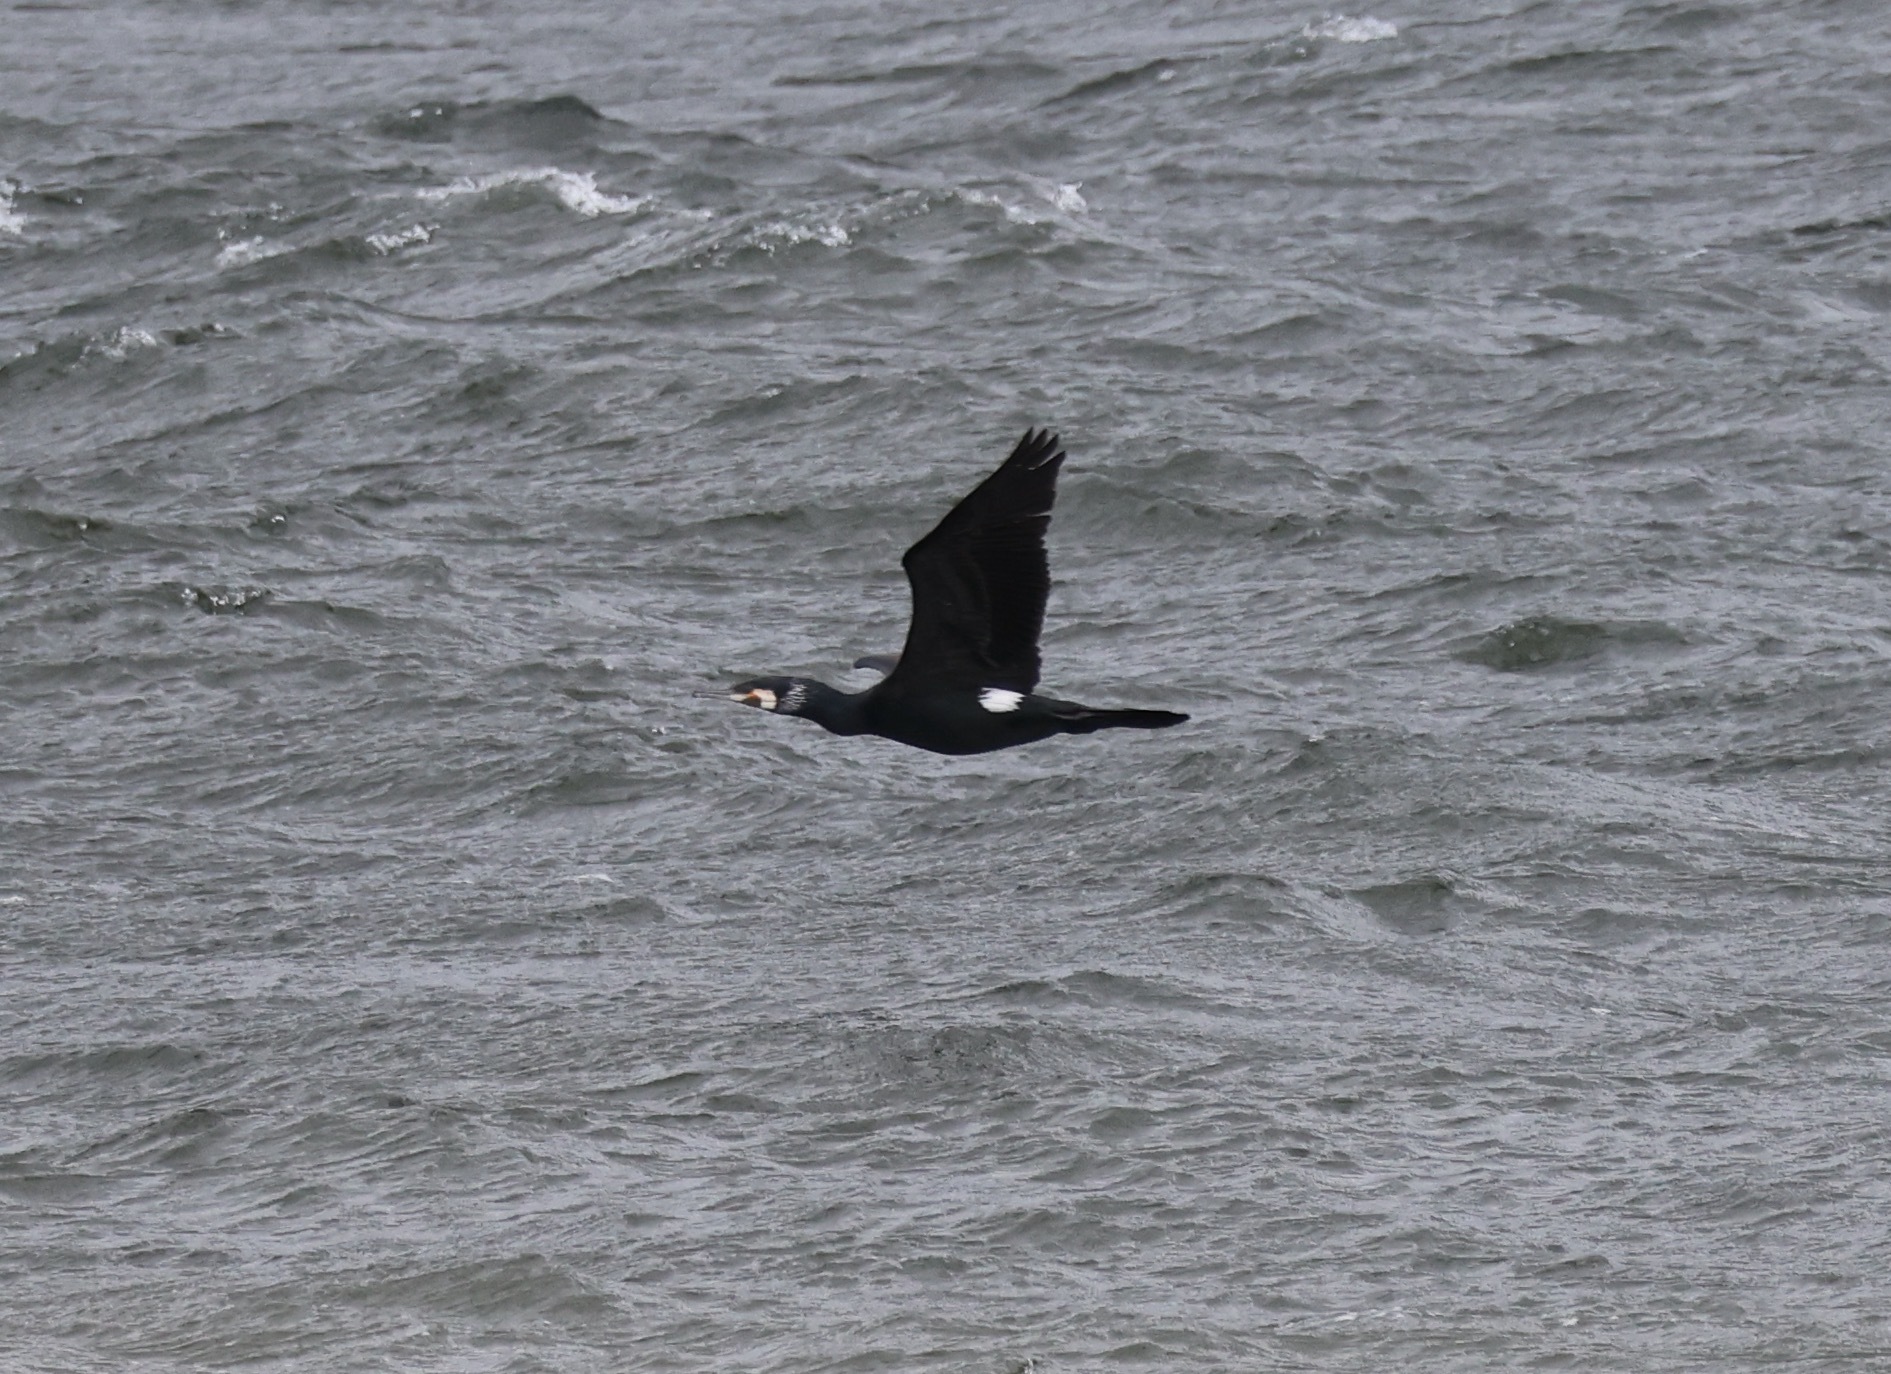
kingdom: Animalia
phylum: Chordata
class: Aves
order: Suliformes
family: Phalacrocoracidae
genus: Phalacrocorax
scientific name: Phalacrocorax carbo
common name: Great cormorant
